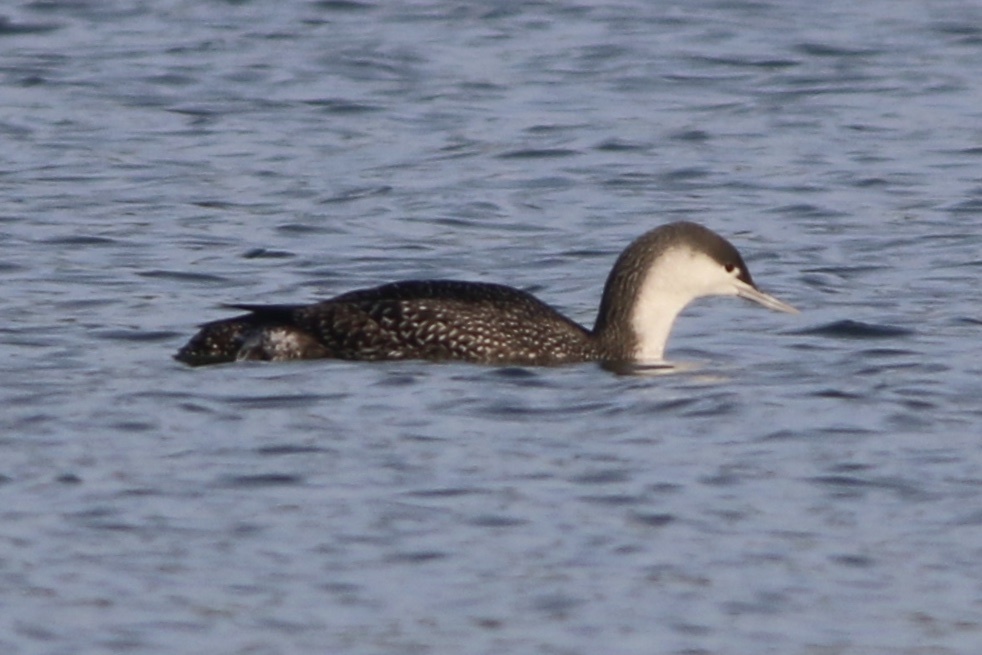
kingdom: Animalia
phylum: Chordata
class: Aves
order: Gaviiformes
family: Gaviidae
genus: Gavia
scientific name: Gavia stellata
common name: Red-throated loon
